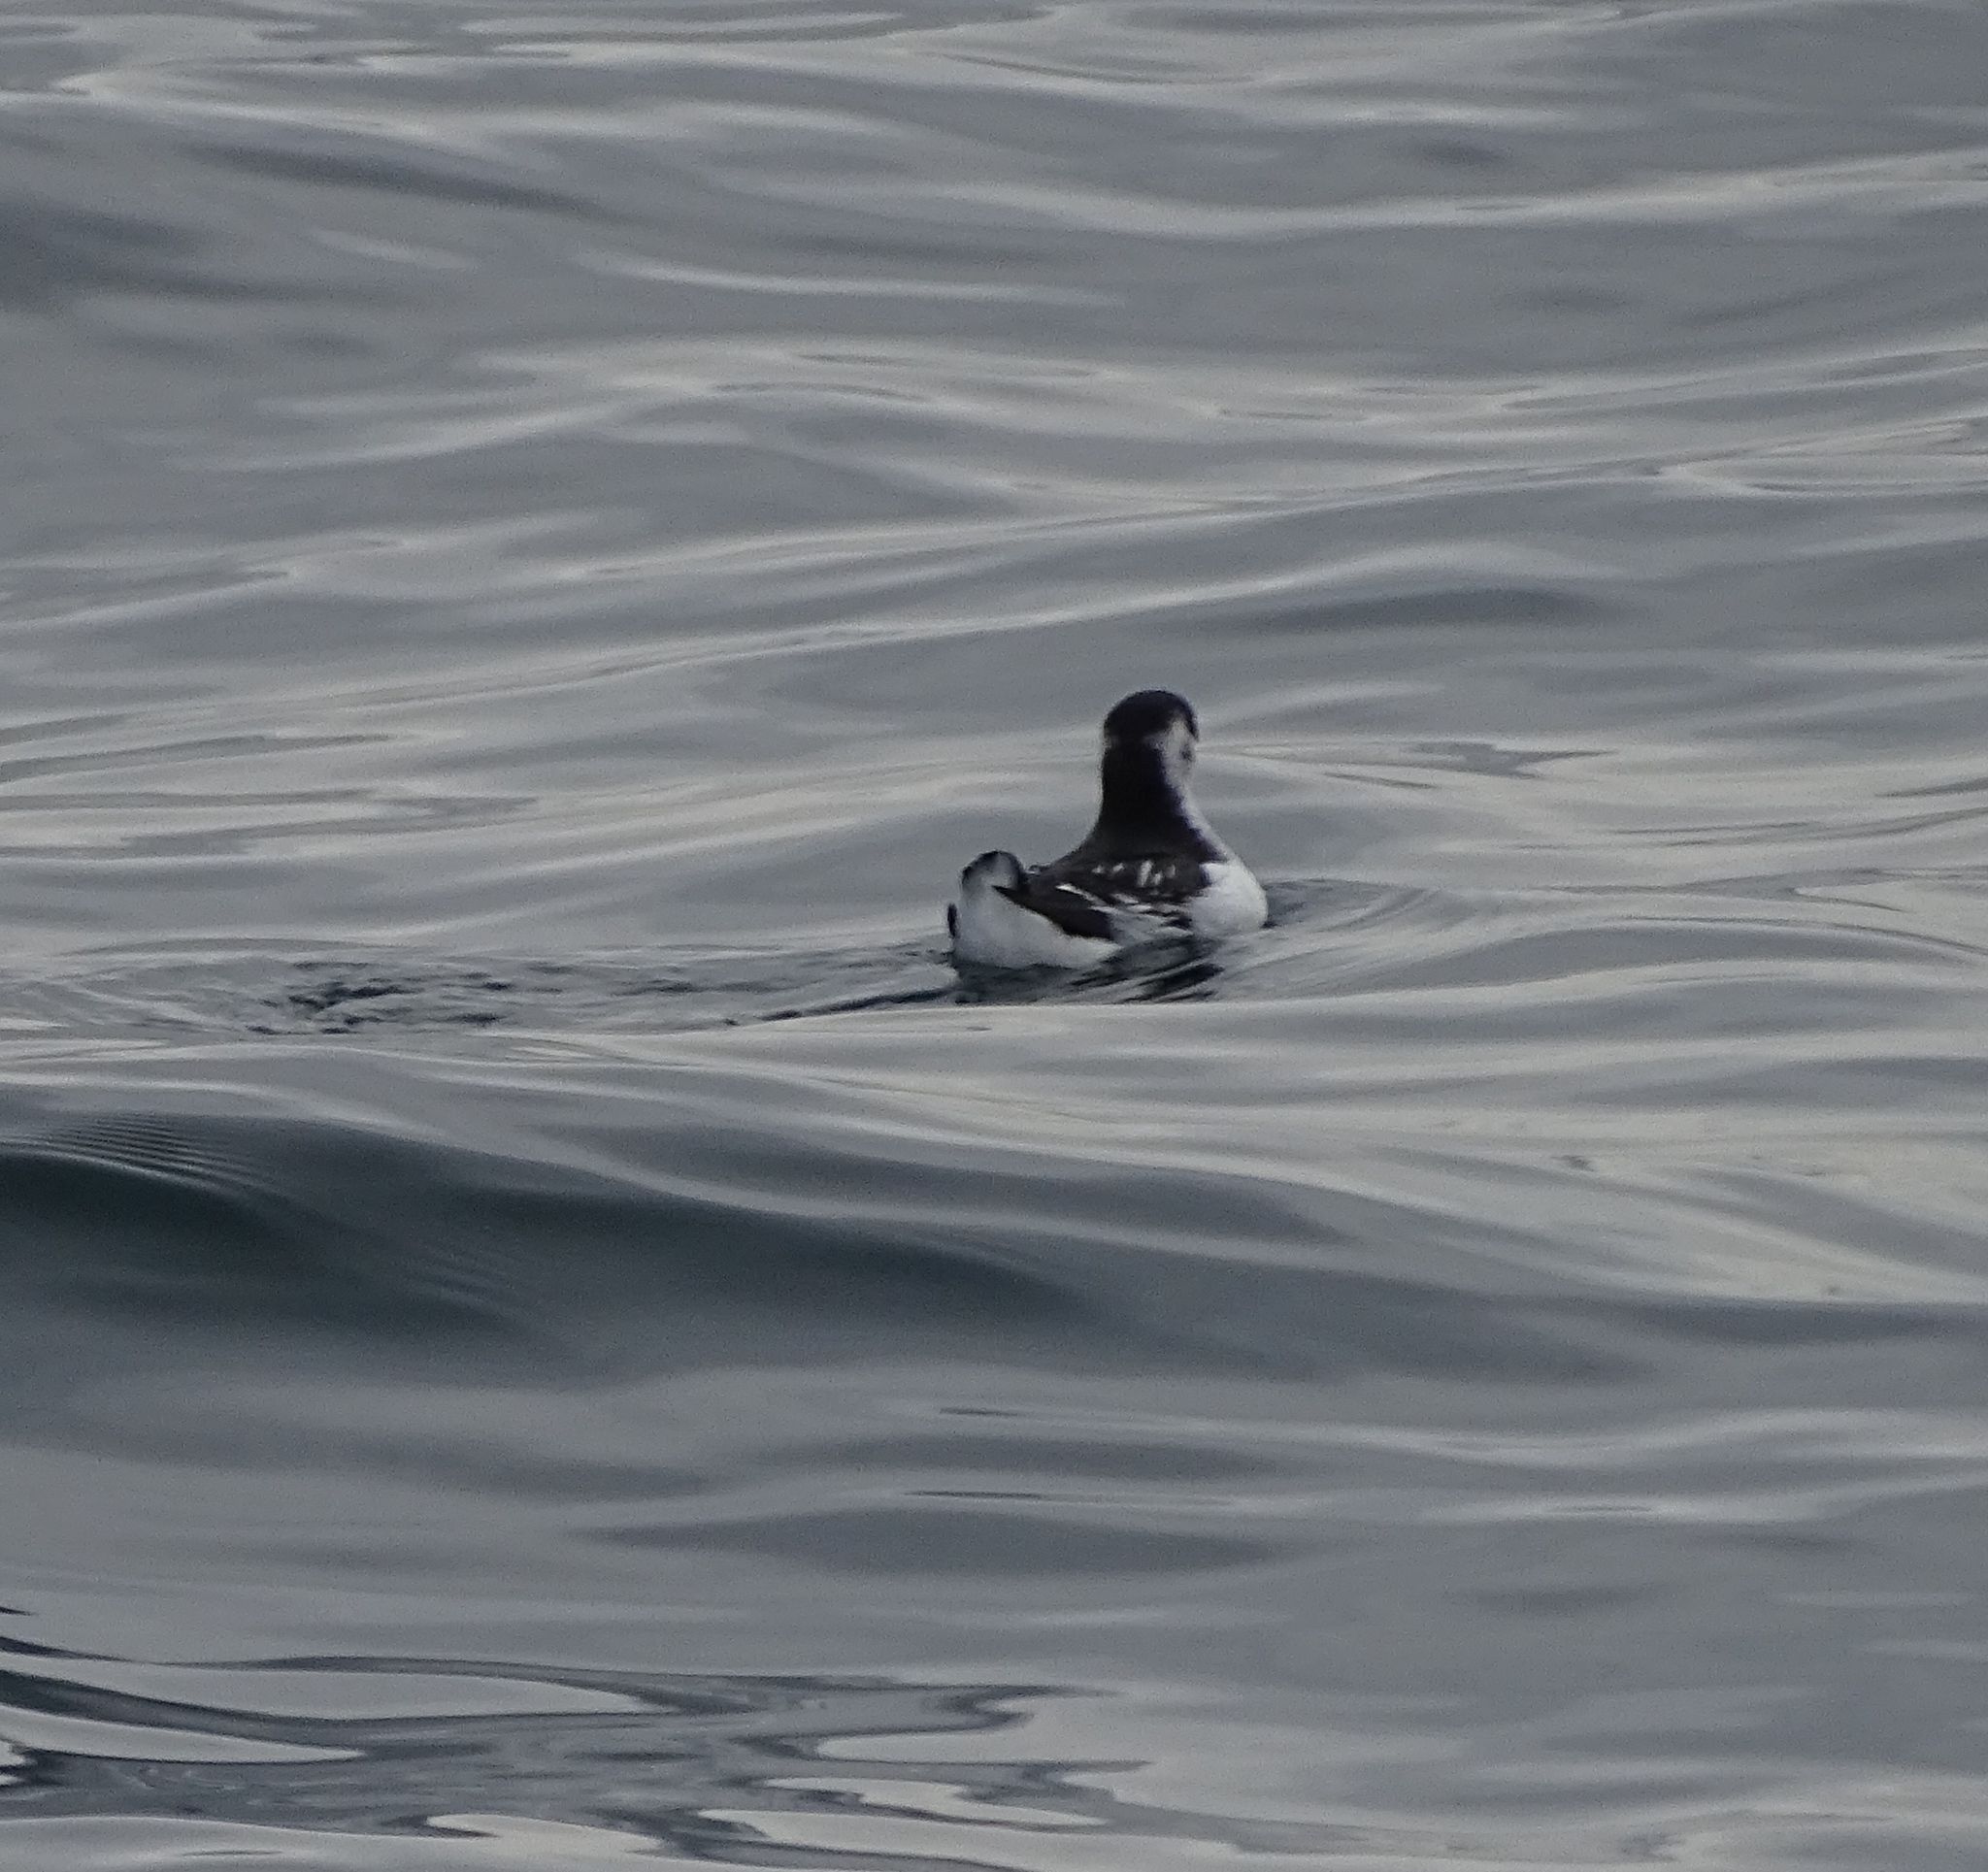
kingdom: Animalia
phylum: Chordata
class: Aves
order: Charadriiformes
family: Alcidae
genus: Alle
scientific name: Alle alle
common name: Little auk
